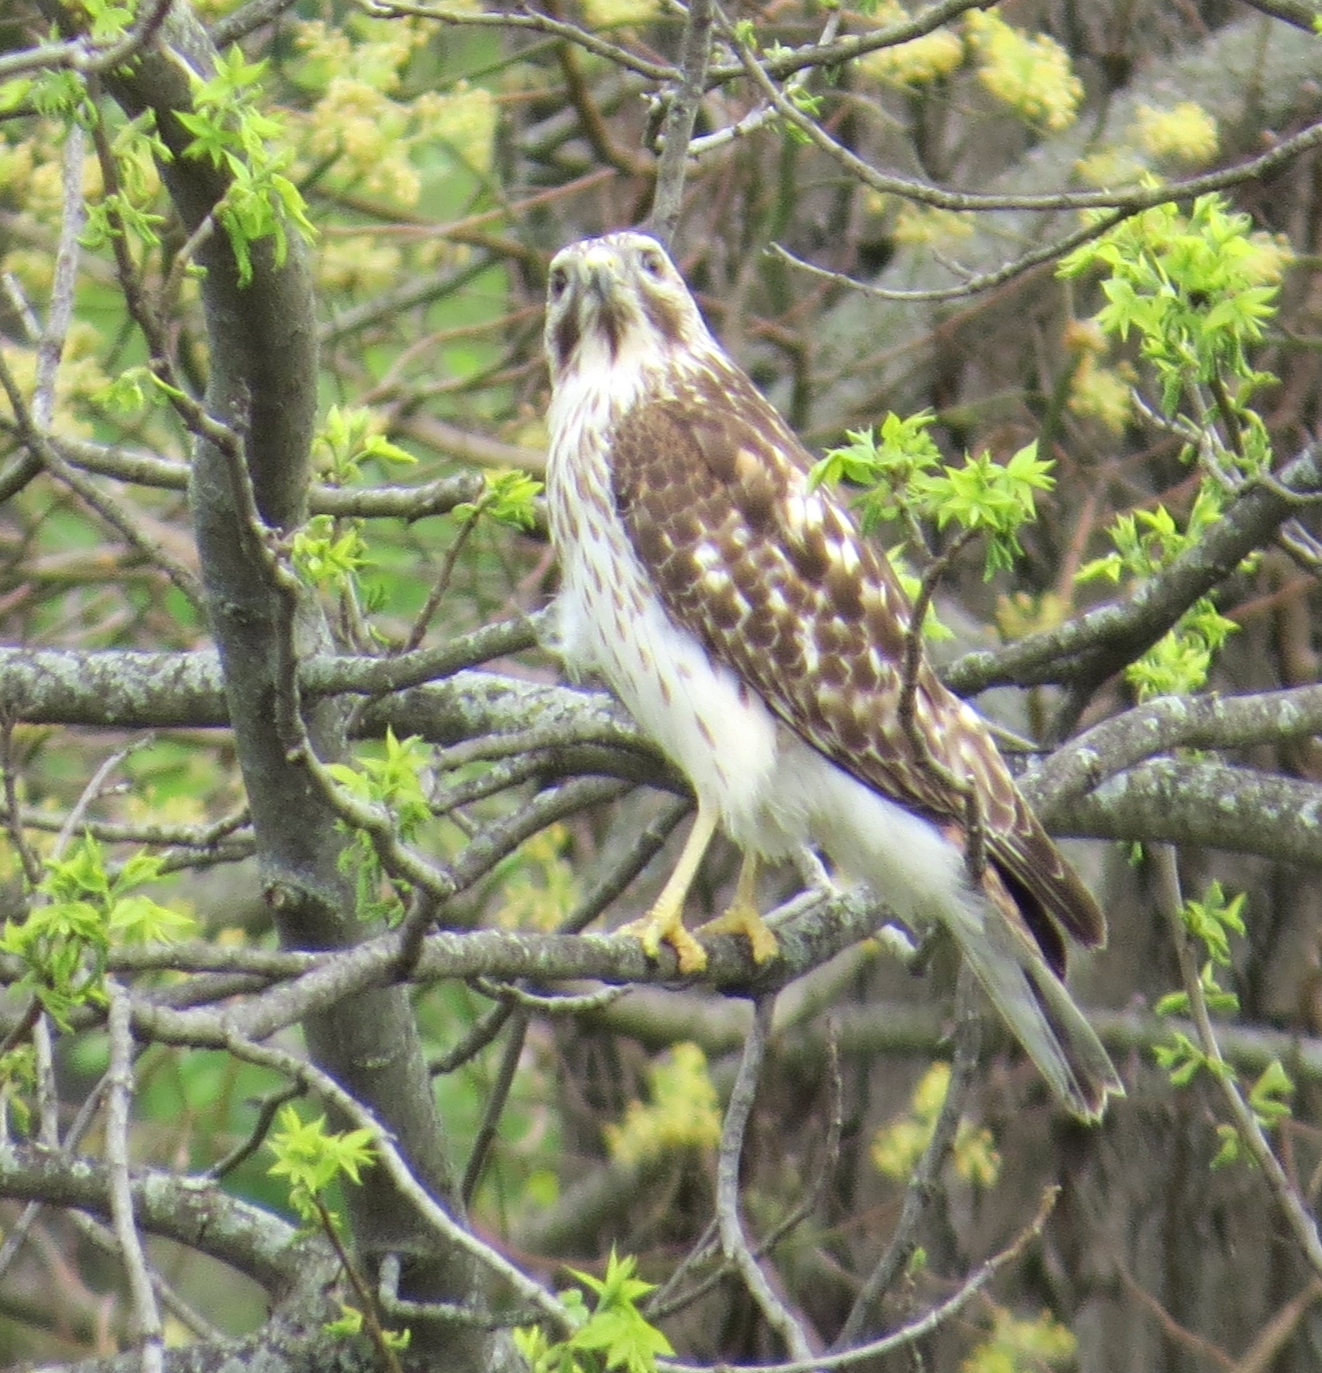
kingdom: Animalia
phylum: Chordata
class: Aves
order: Accipitriformes
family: Accipitridae
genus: Buteo
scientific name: Buteo lineatus
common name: Red-shouldered hawk
